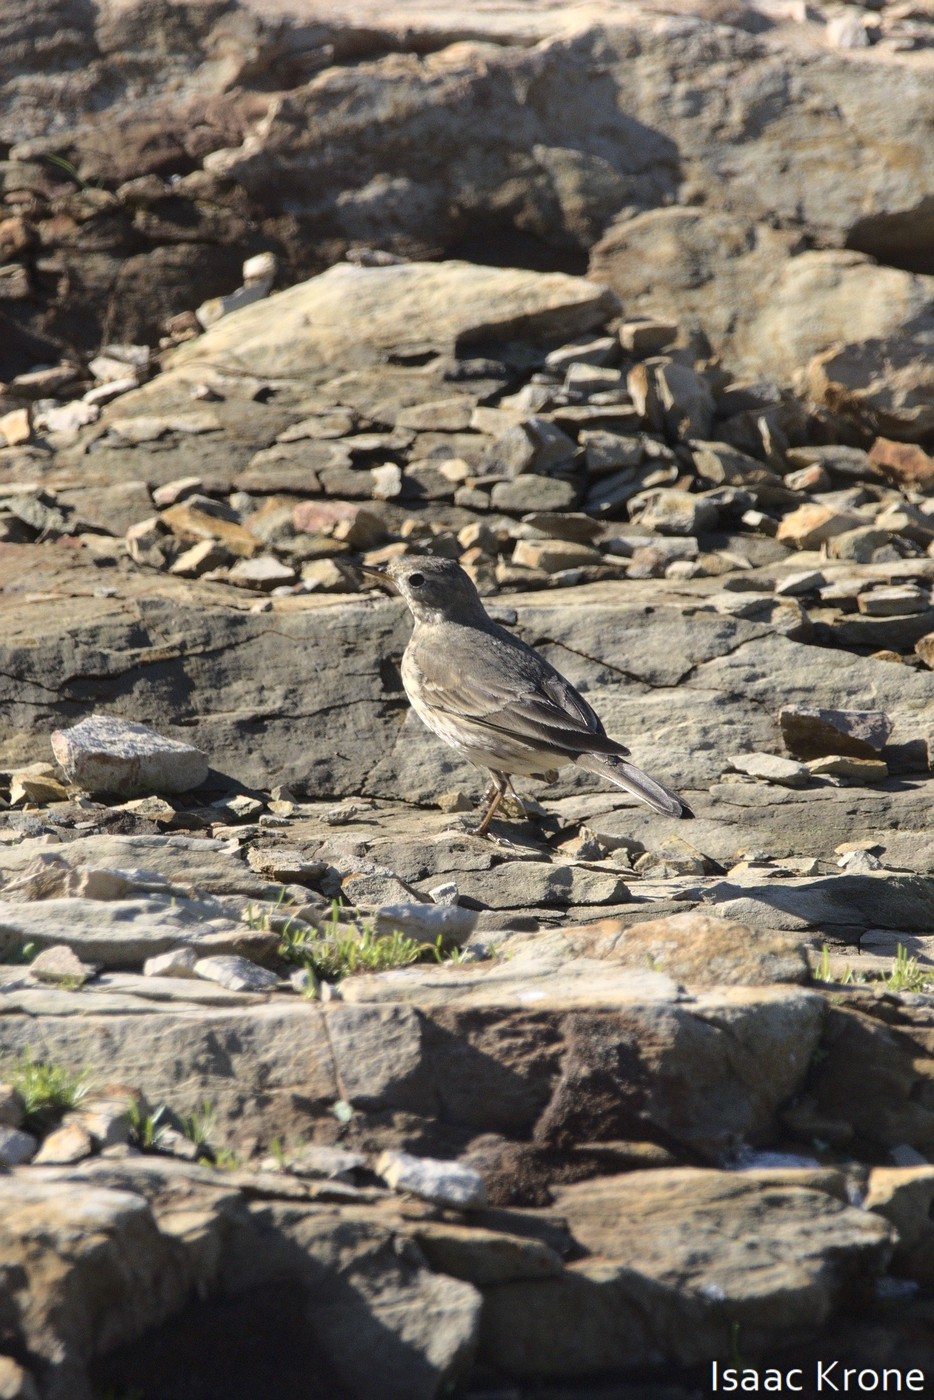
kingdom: Animalia
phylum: Chordata
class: Aves
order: Passeriformes
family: Motacillidae
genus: Anthus
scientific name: Anthus rubescens
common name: Buff-bellied pipit
